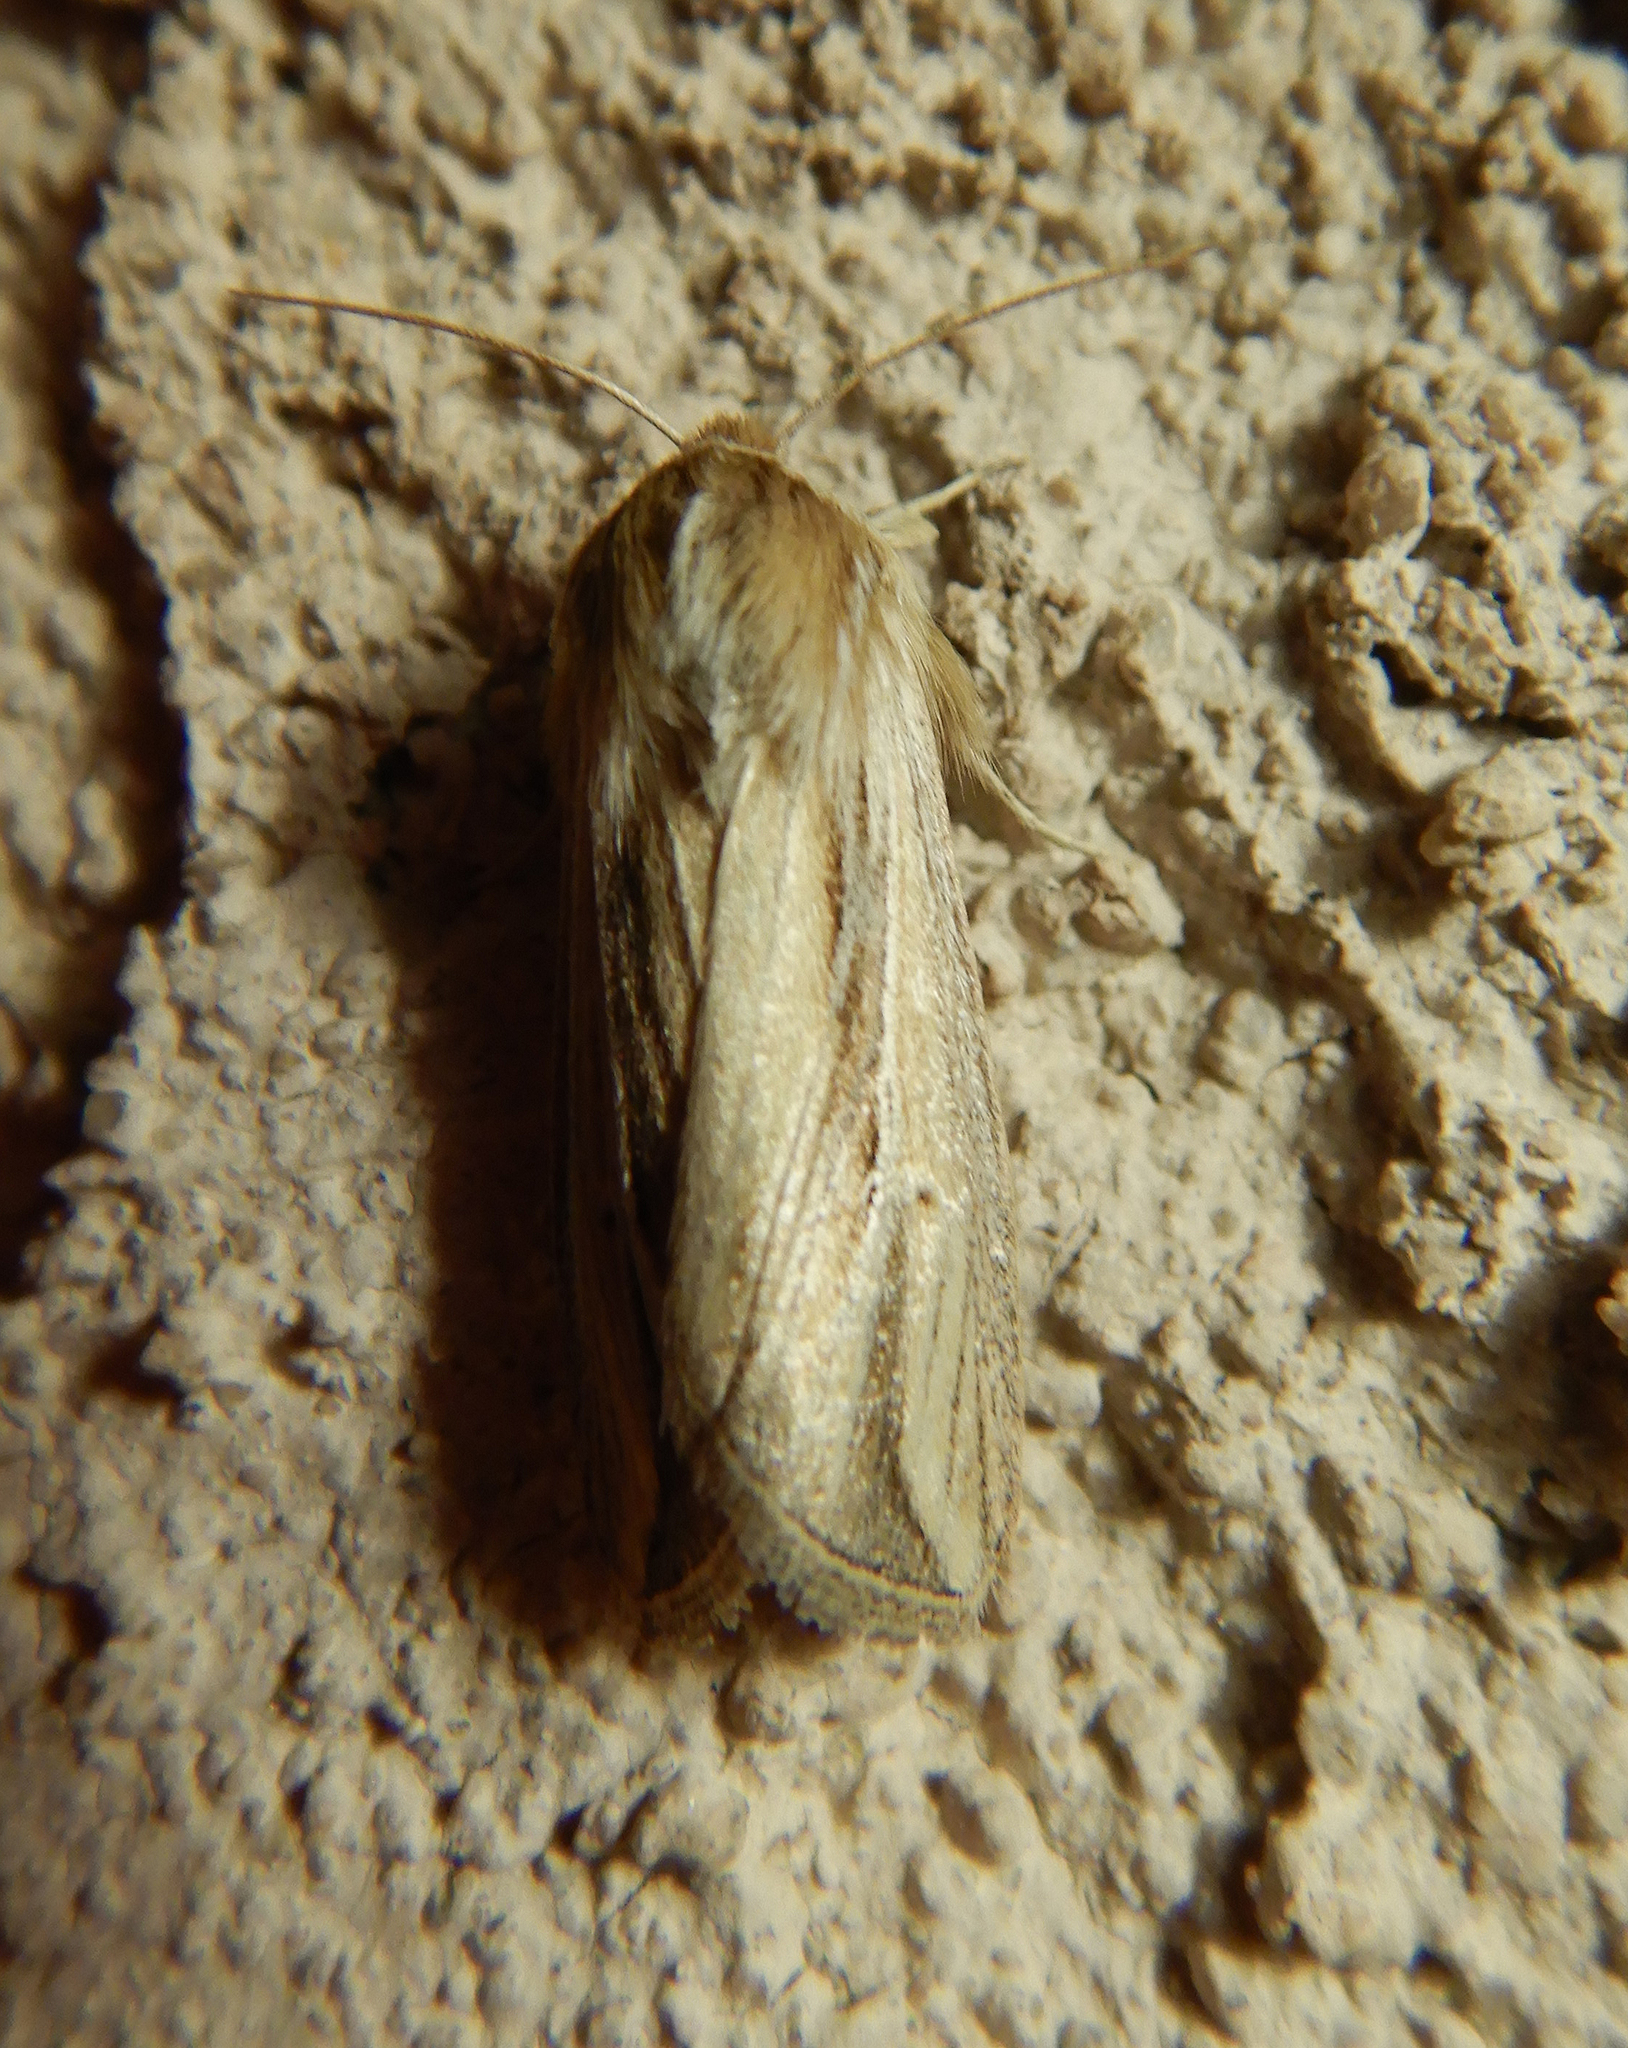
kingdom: Animalia
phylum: Arthropoda
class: Insecta
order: Lepidoptera
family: Noctuidae
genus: Dargida
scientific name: Dargida diffusa
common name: Wheat head armyworm
